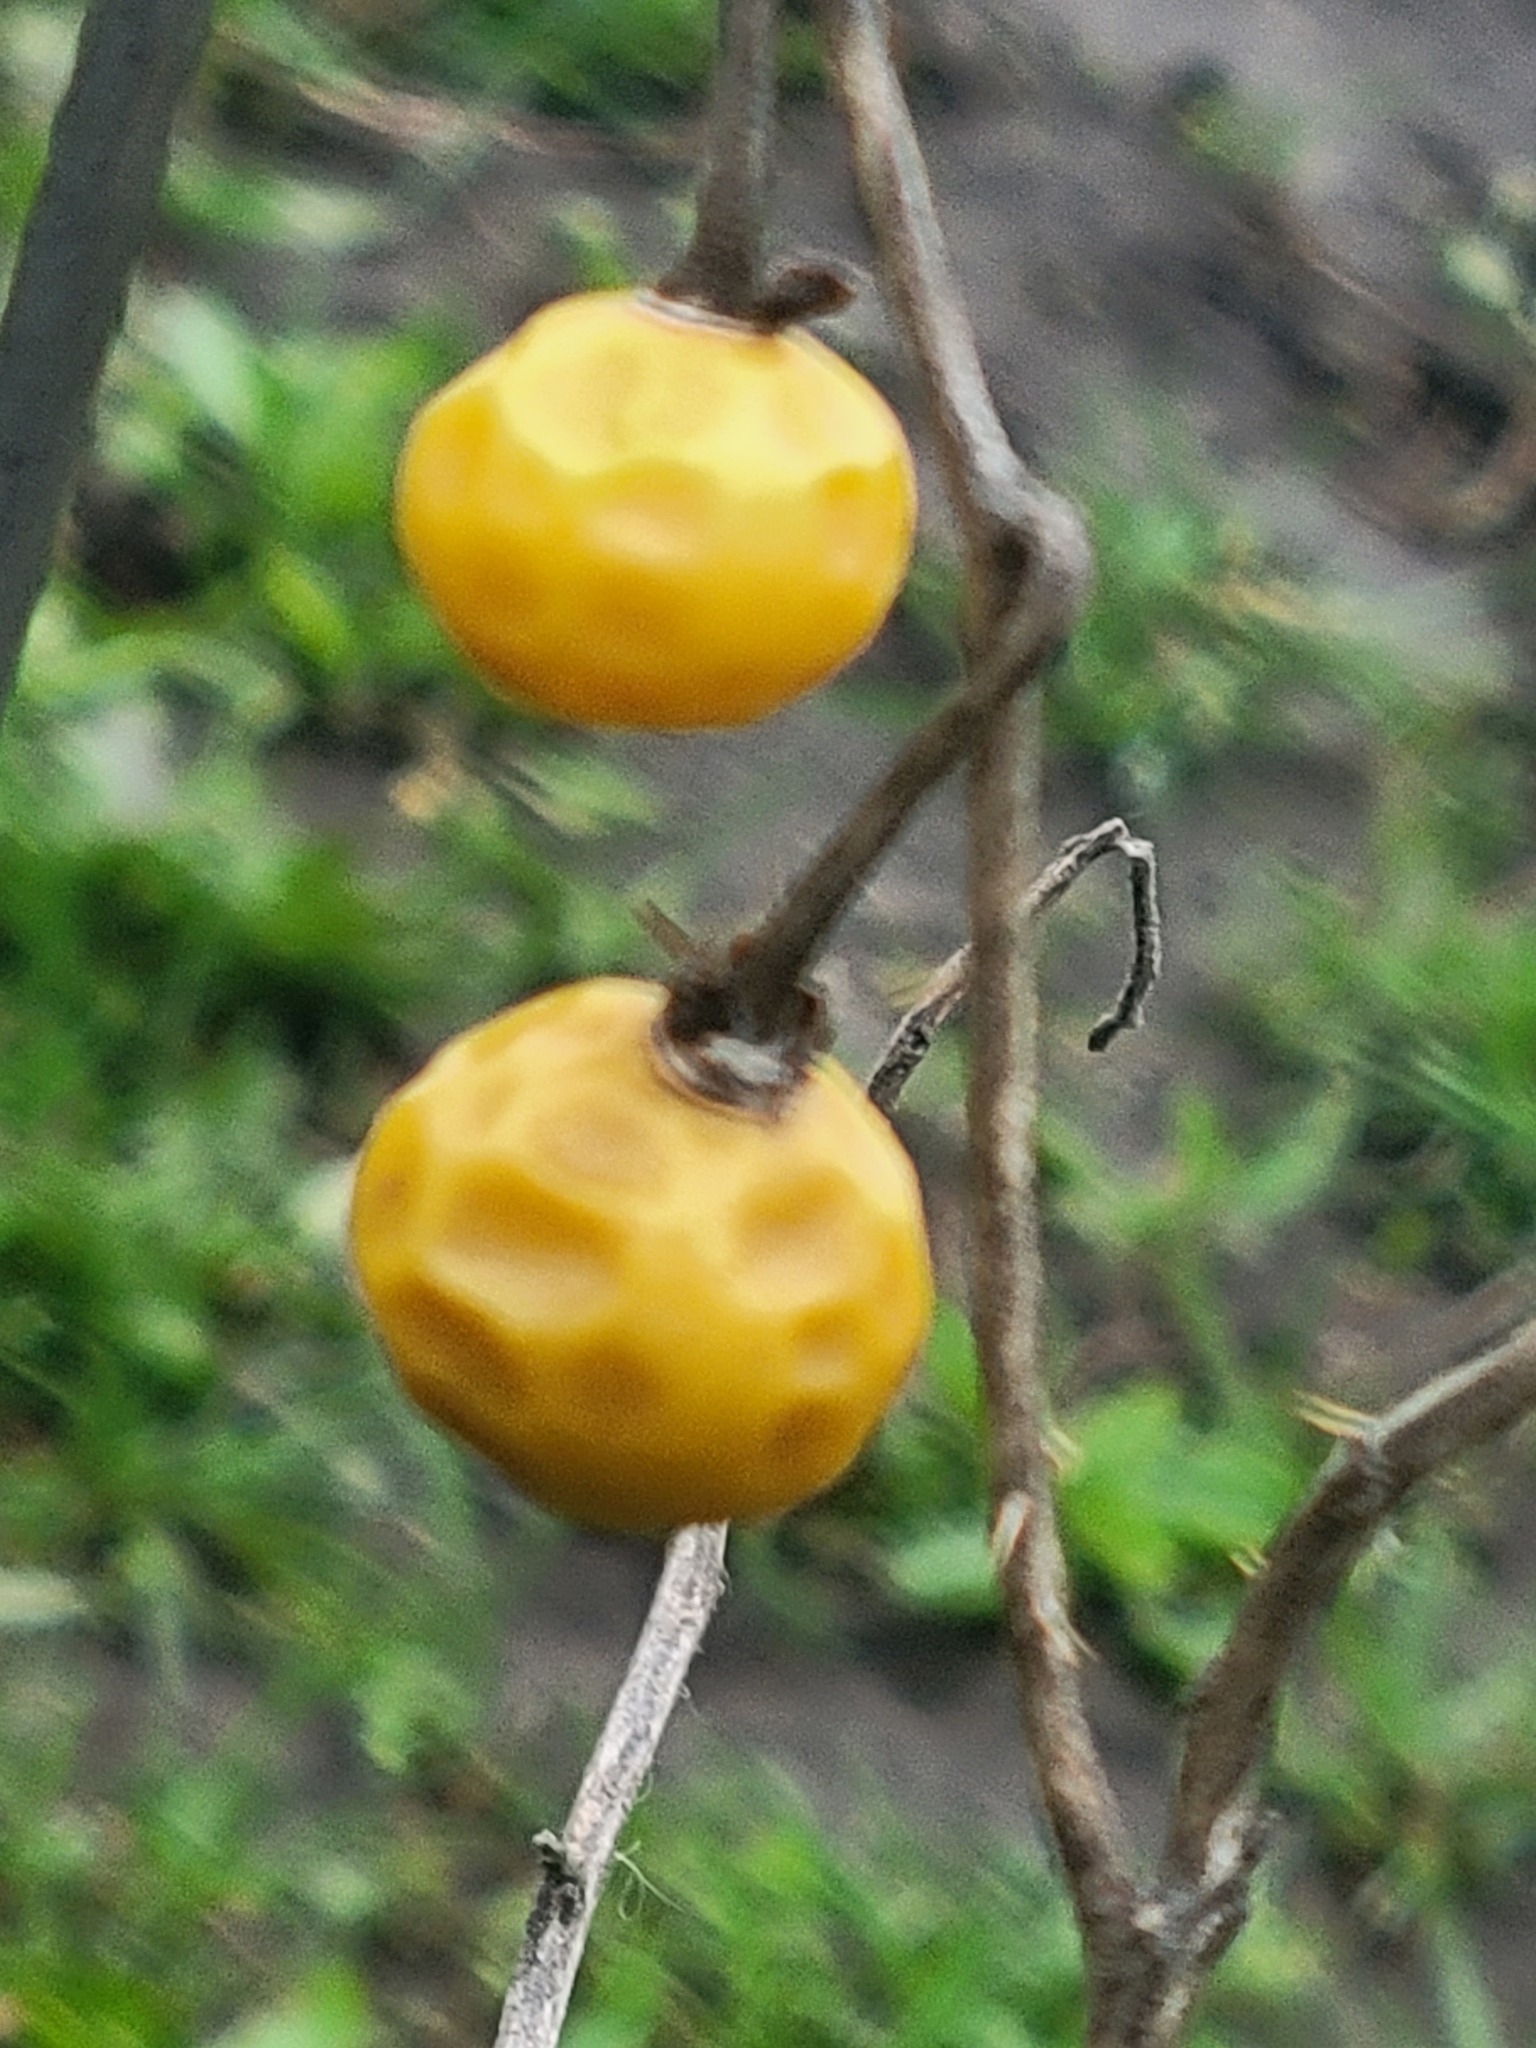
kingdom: Plantae
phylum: Tracheophyta
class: Magnoliopsida
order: Solanales
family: Solanaceae
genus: Solanum
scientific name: Solanum carolinense
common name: Horse-nettle
